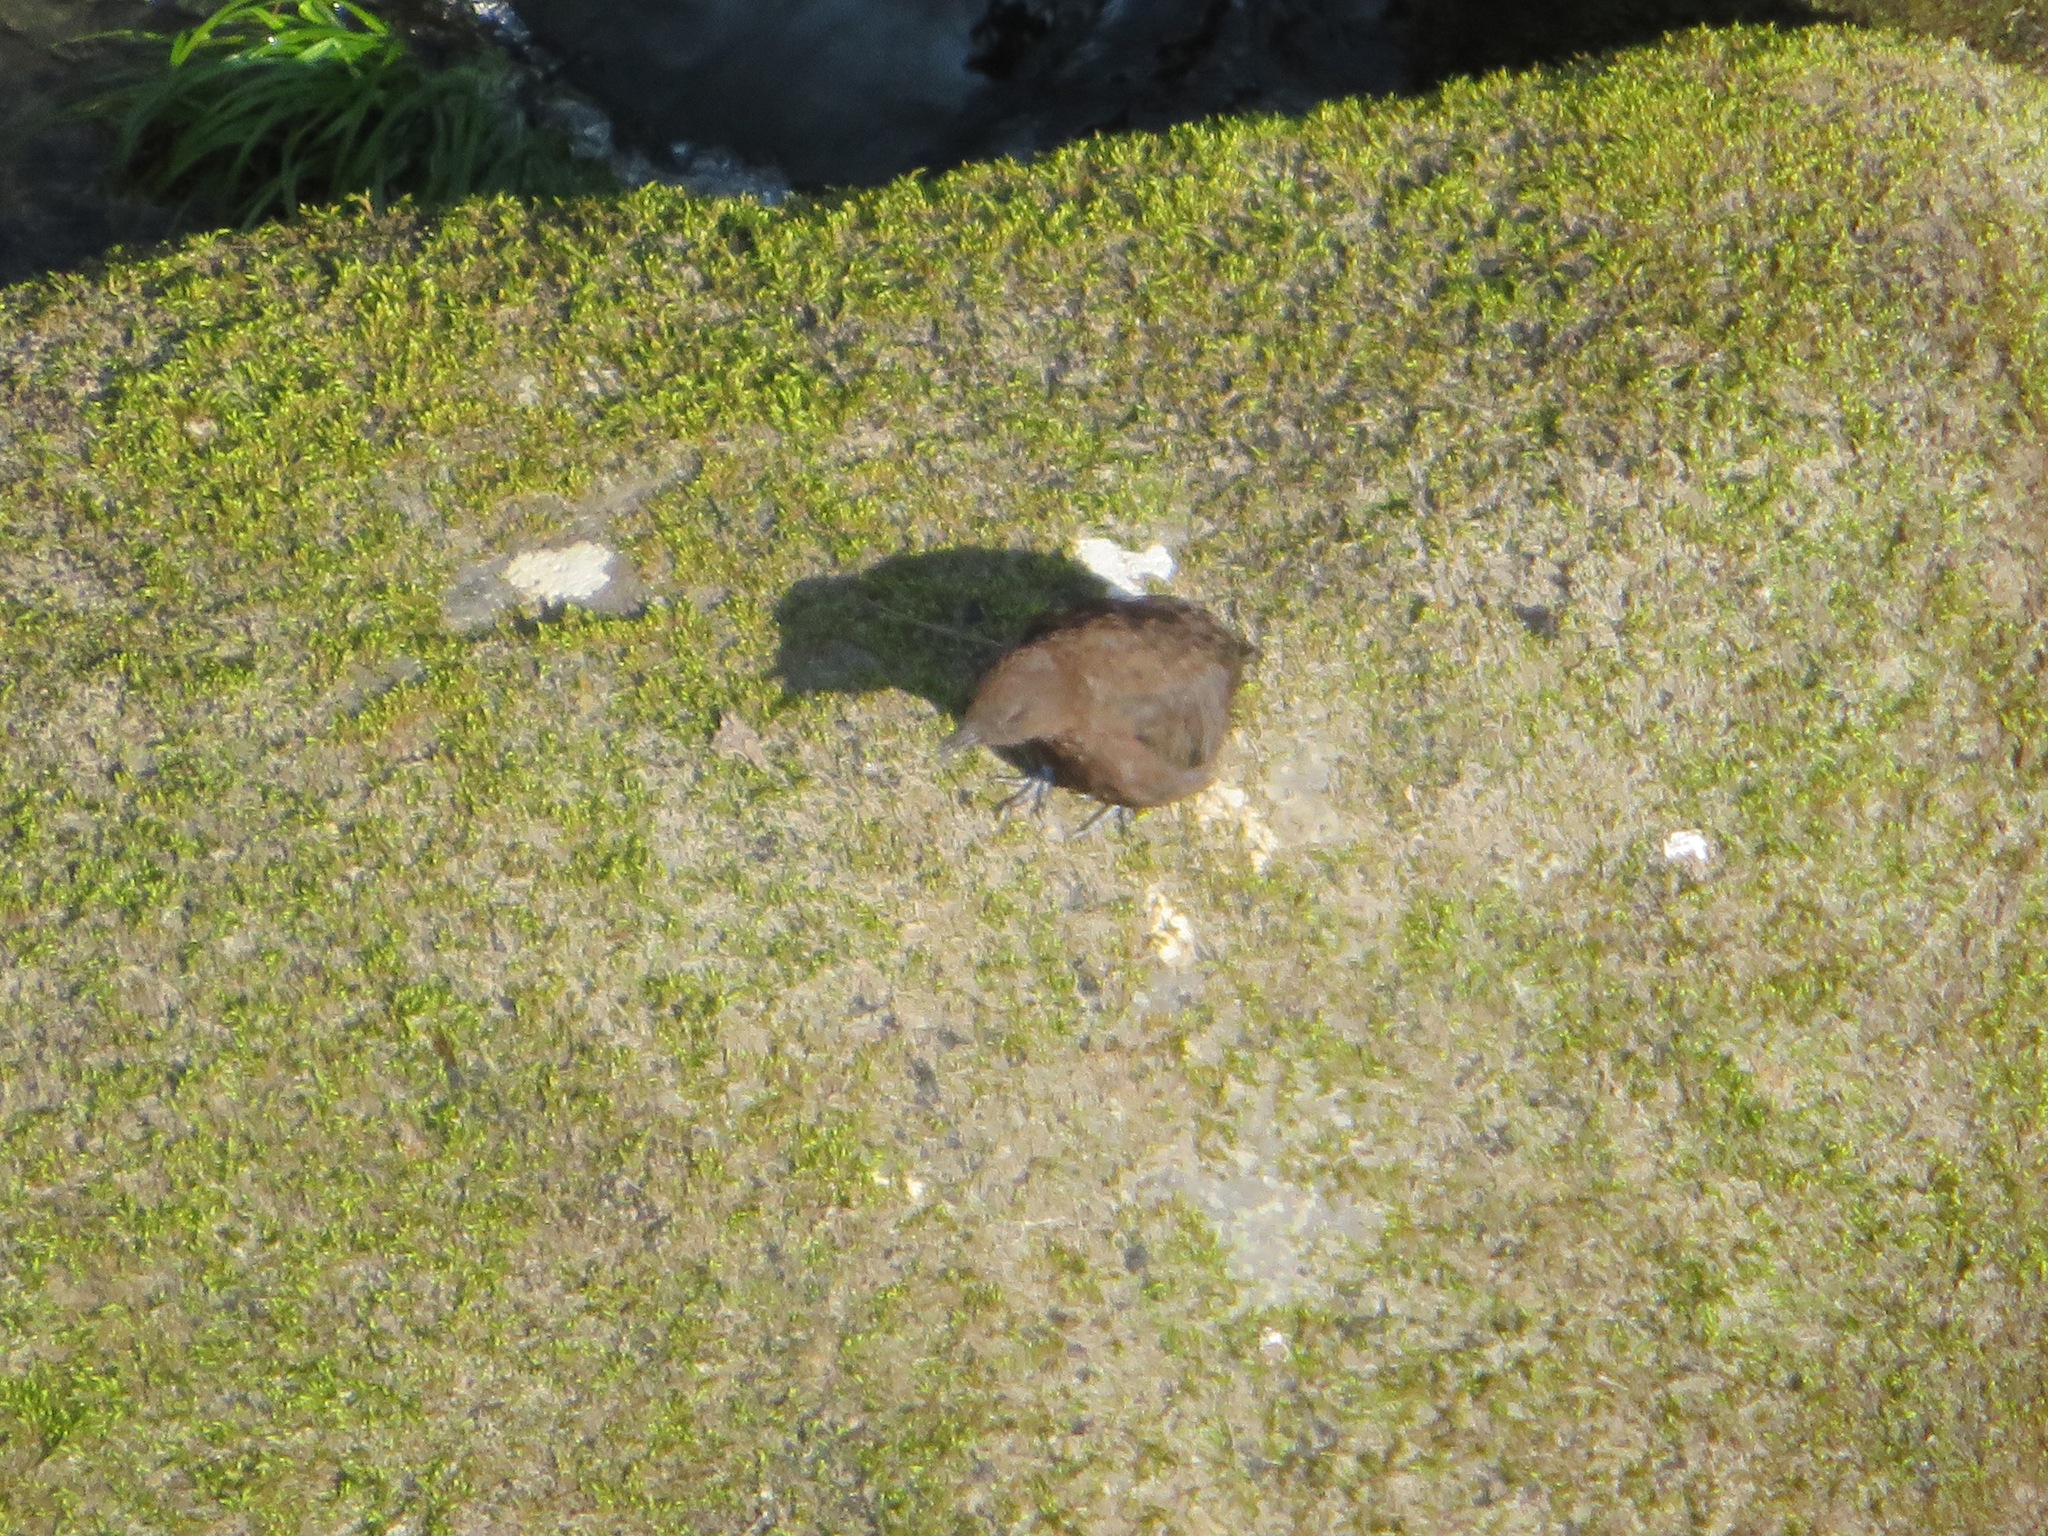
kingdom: Animalia
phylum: Chordata
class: Aves
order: Passeriformes
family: Cinclidae
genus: Cinclus
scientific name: Cinclus pallasii
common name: Brown dipper
